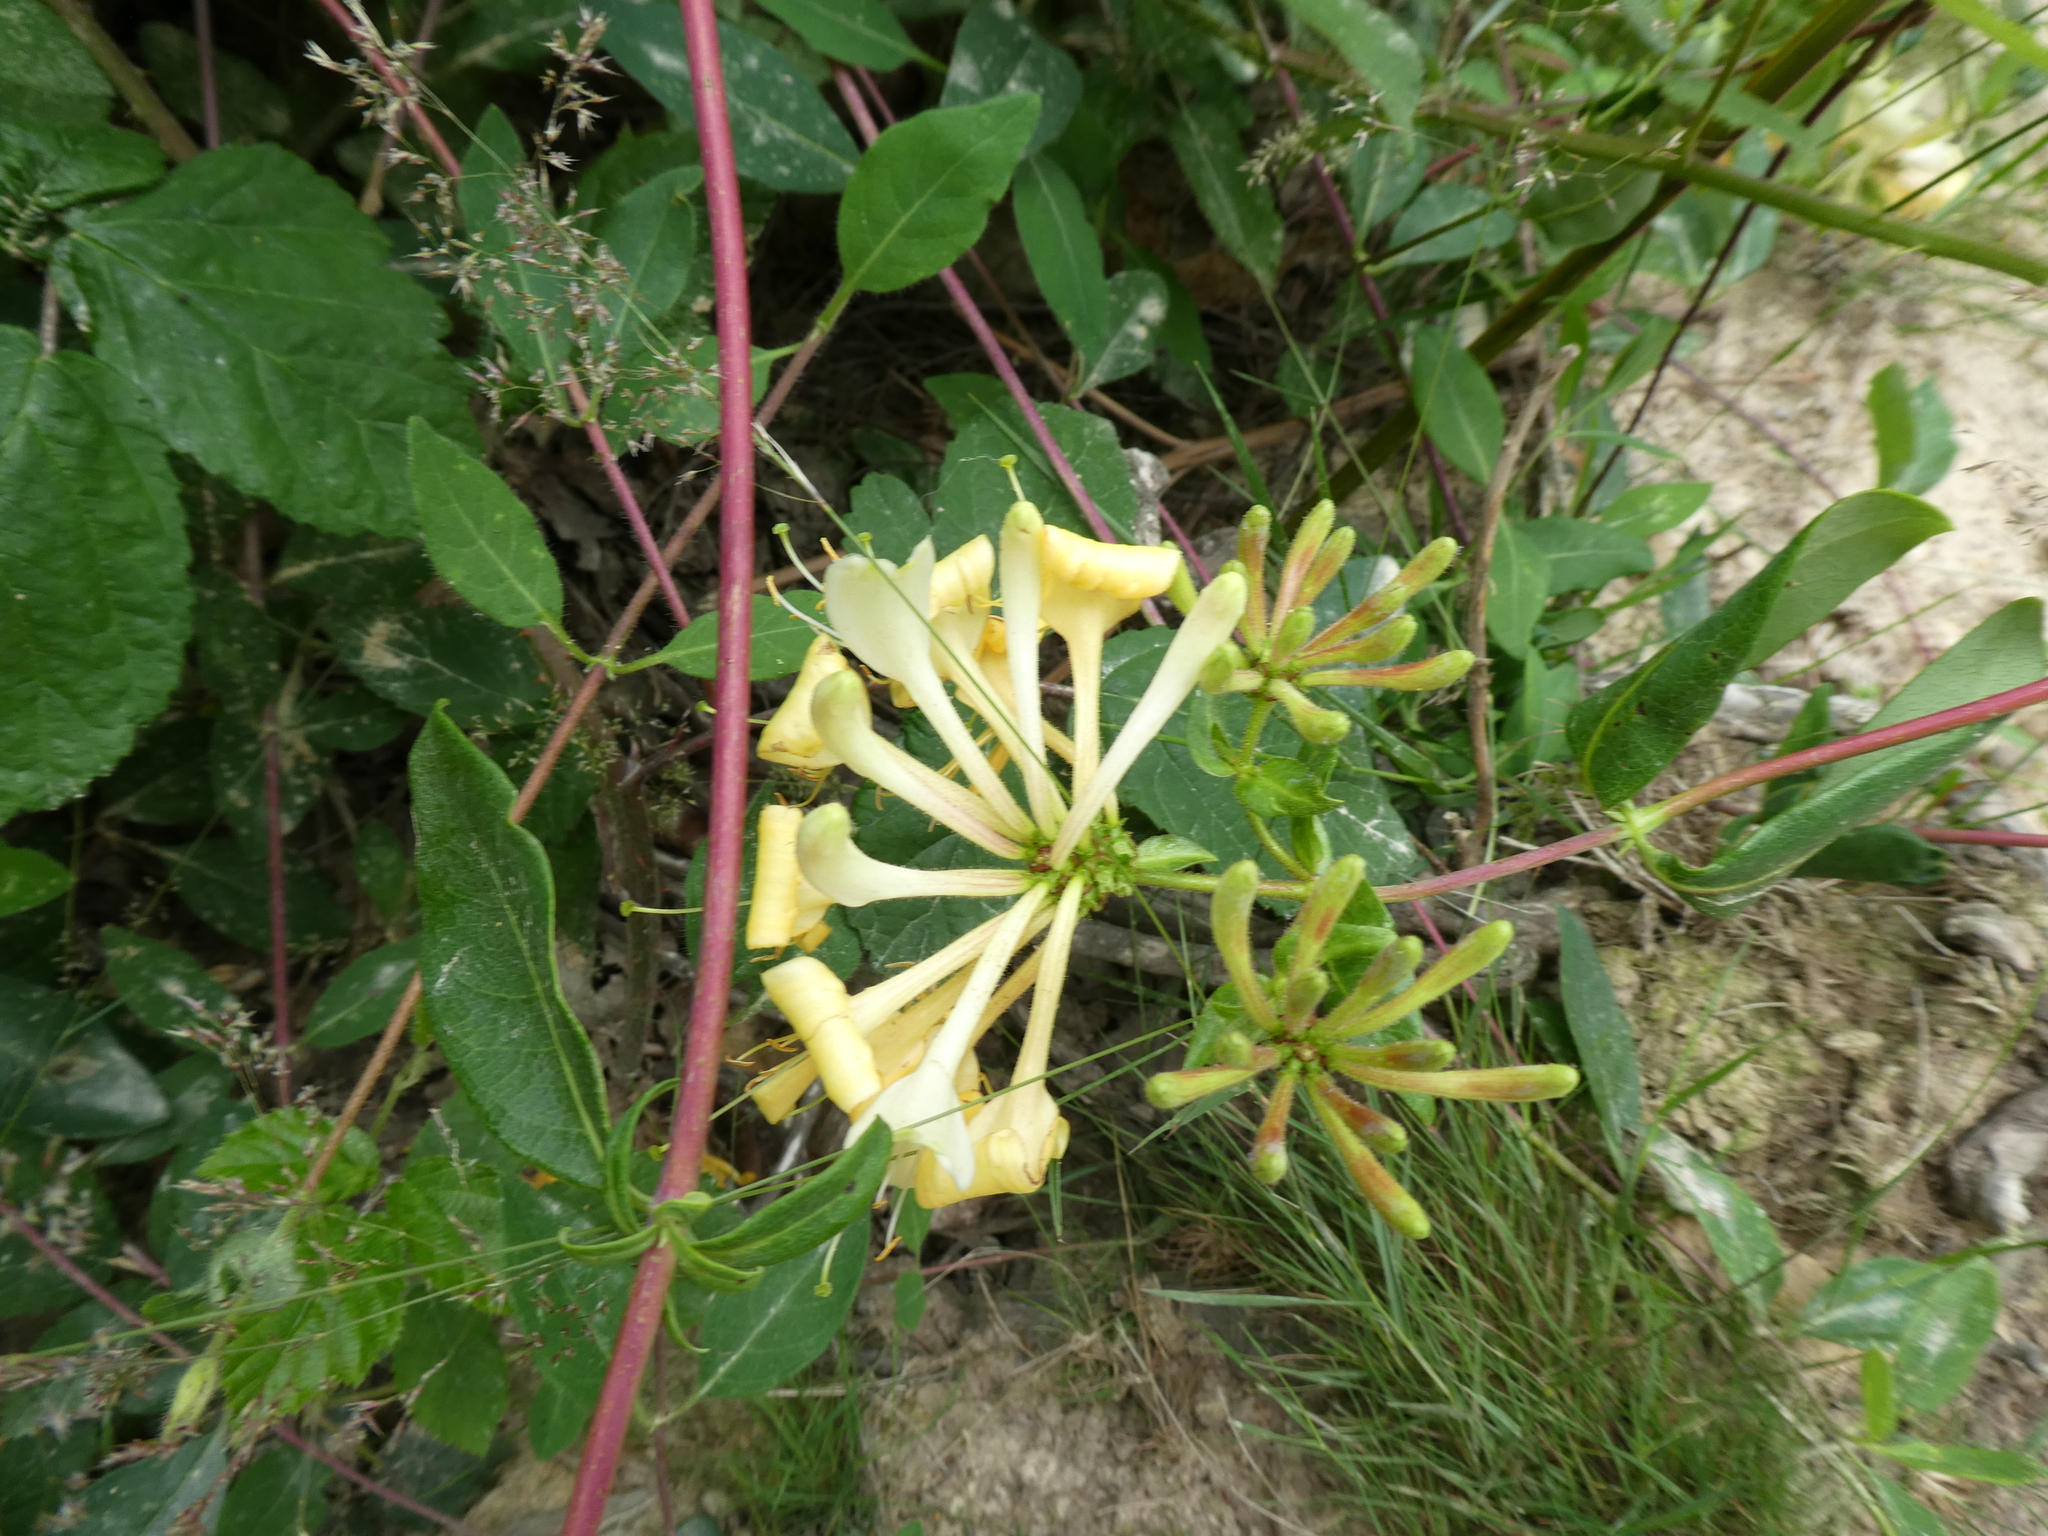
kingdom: Plantae
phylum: Tracheophyta
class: Magnoliopsida
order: Dipsacales
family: Caprifoliaceae
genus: Lonicera
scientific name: Lonicera periclymenum
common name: European honeysuckle
